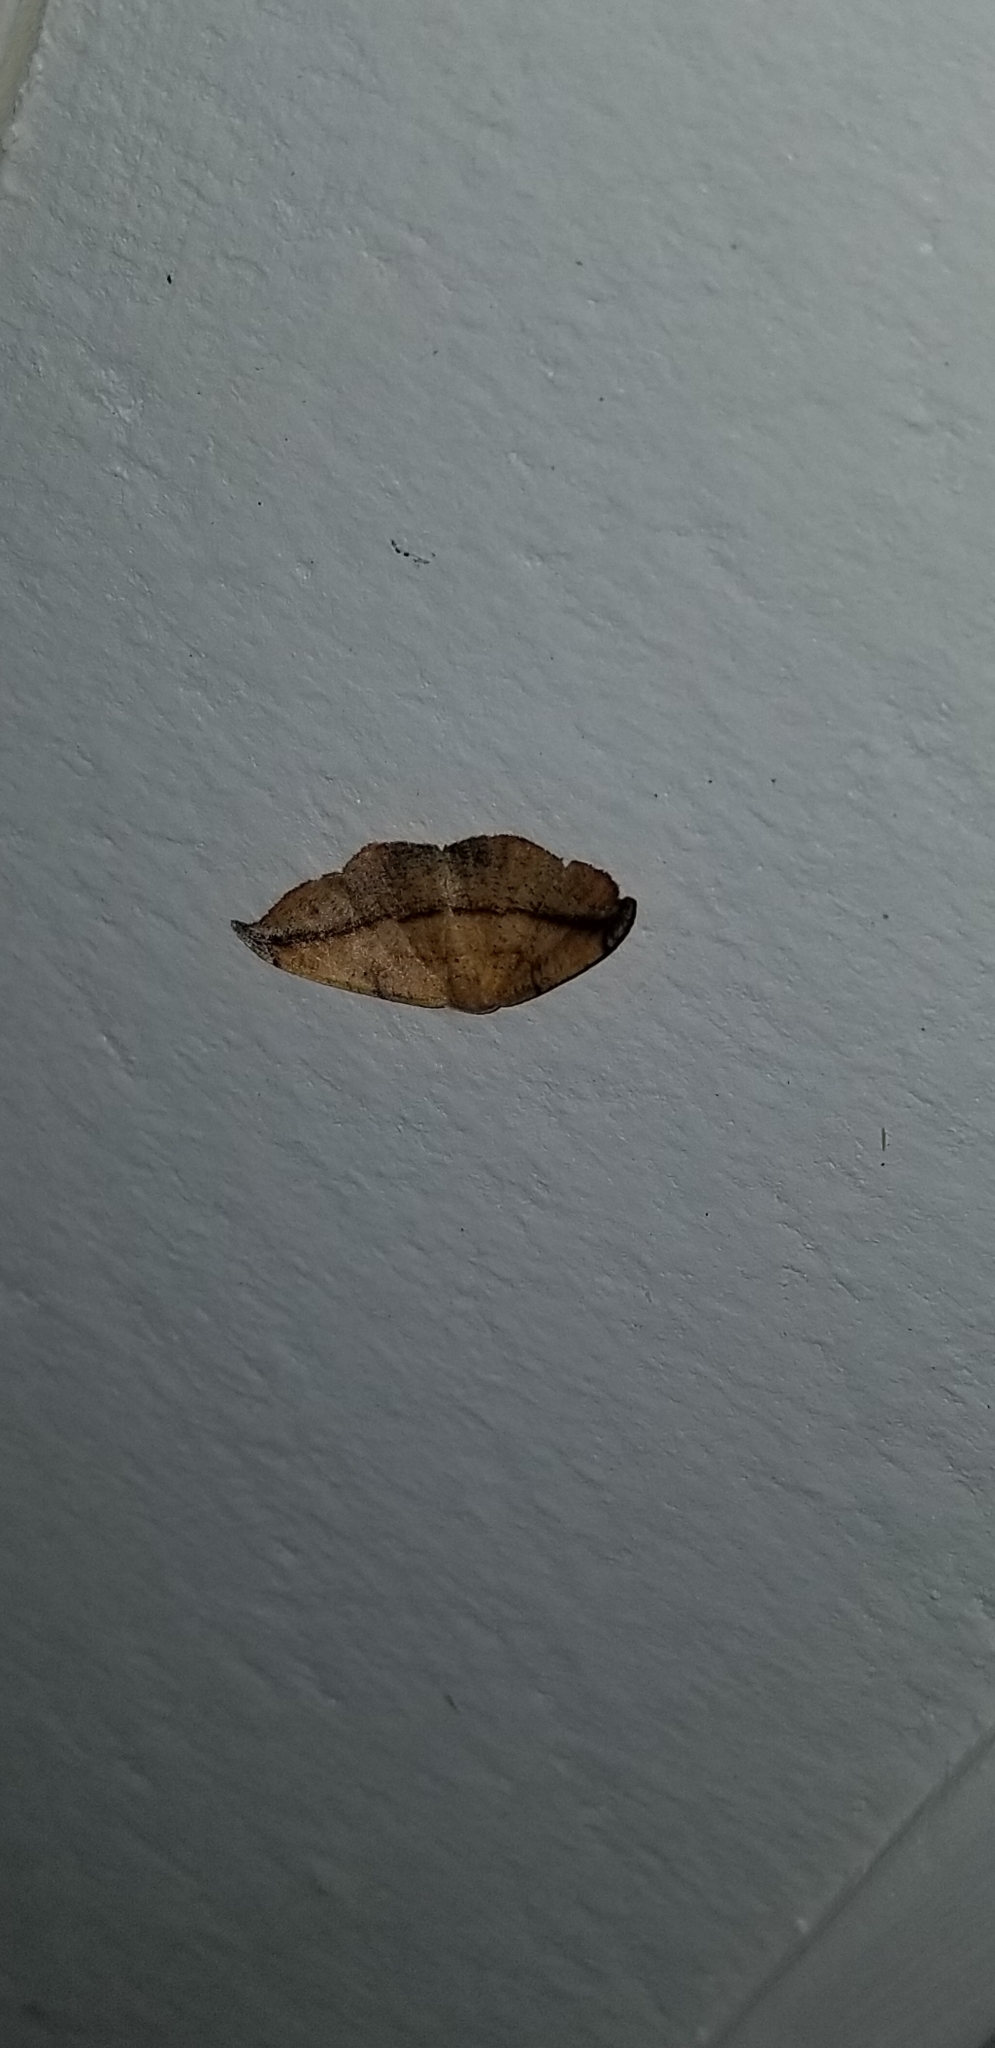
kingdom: Animalia
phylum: Arthropoda
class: Insecta
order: Lepidoptera
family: Geometridae
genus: Patalene
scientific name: Patalene olyzonaria
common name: Juniper geometer moth
